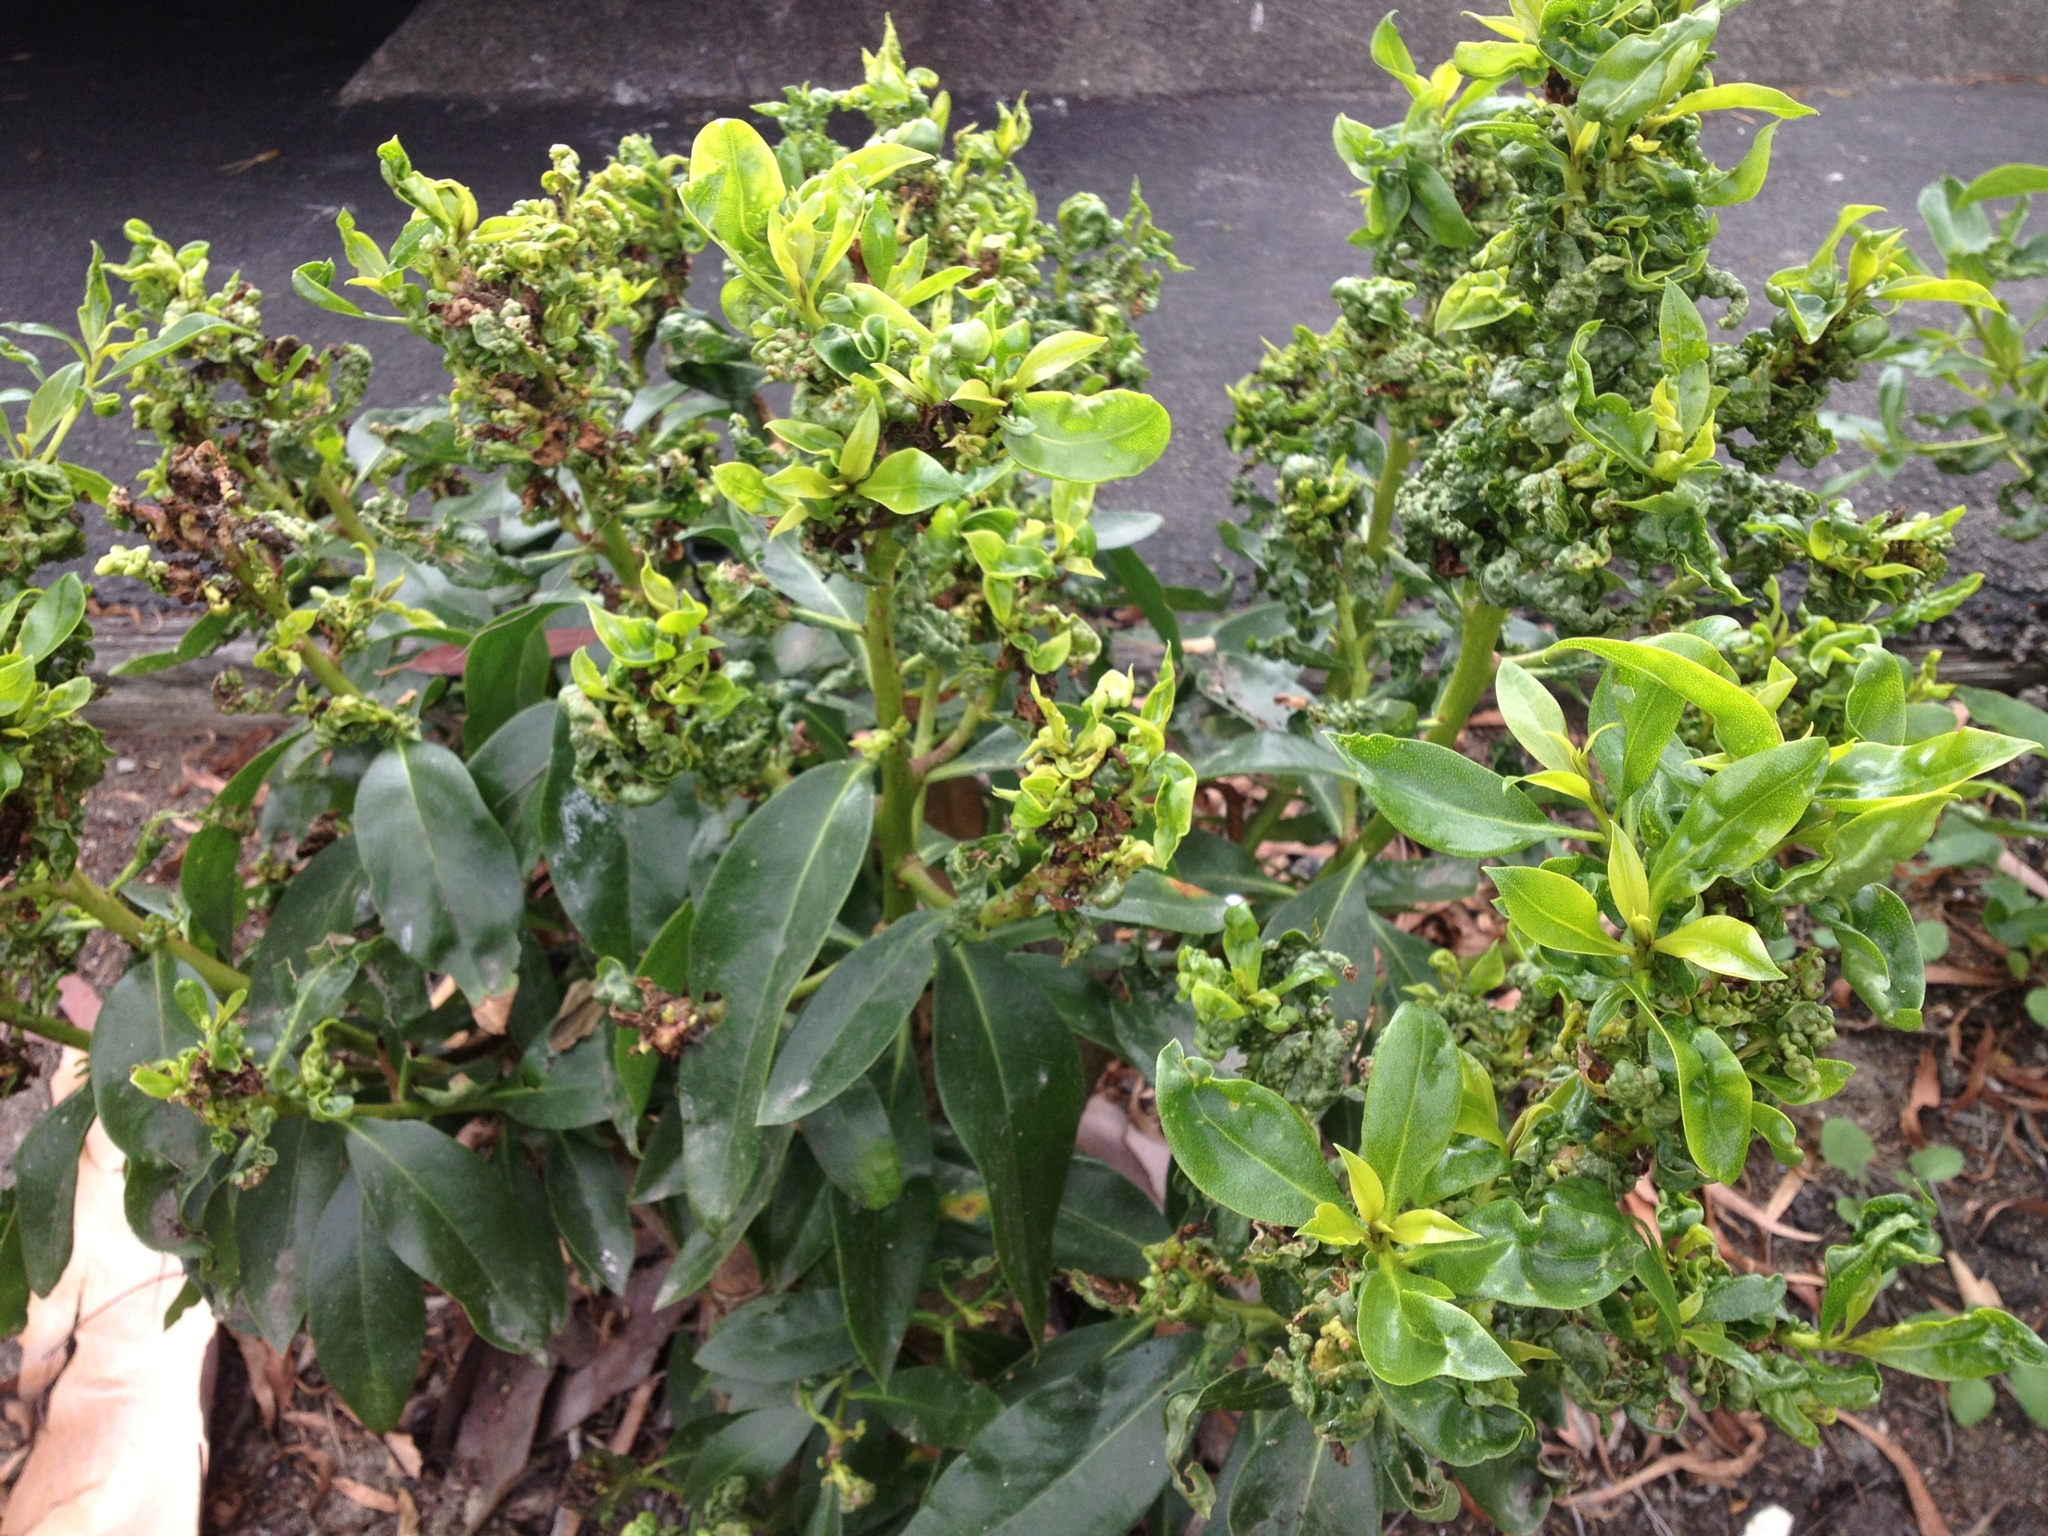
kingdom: Animalia
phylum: Arthropoda
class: Insecta
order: Thysanoptera
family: Phlaeothripidae
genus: Klambothrips
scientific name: Klambothrips myopori
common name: Myoporum thrips
